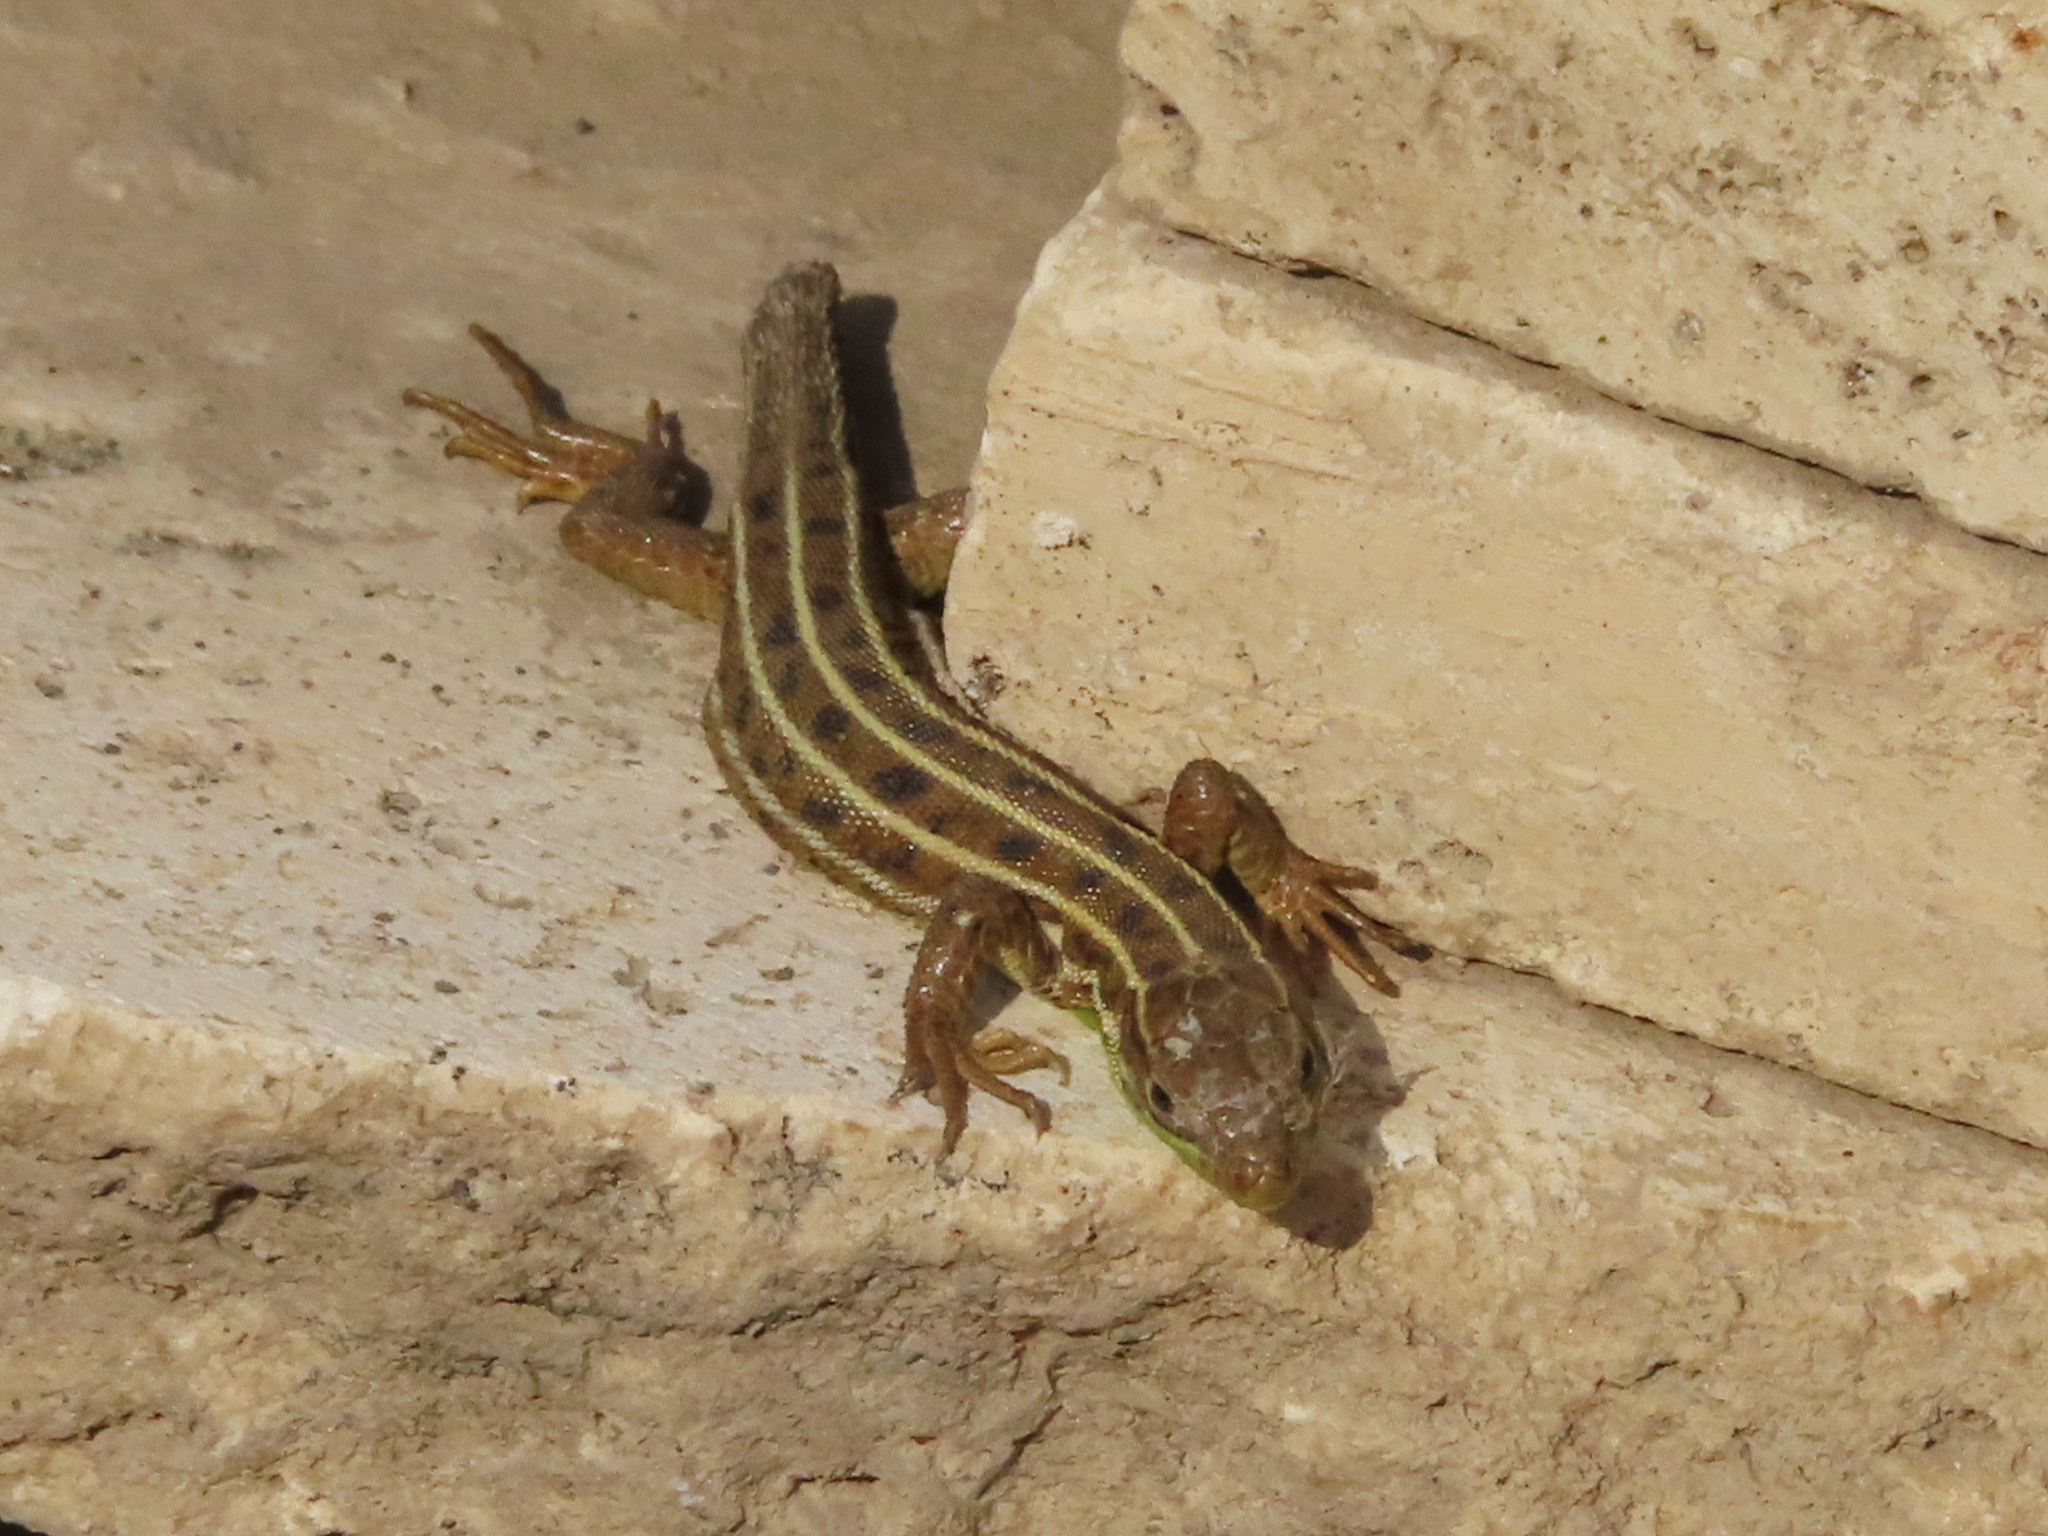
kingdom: Animalia
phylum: Chordata
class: Squamata
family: Lacertidae
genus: Lacerta
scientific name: Lacerta strigata
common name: Caspian green lizard
